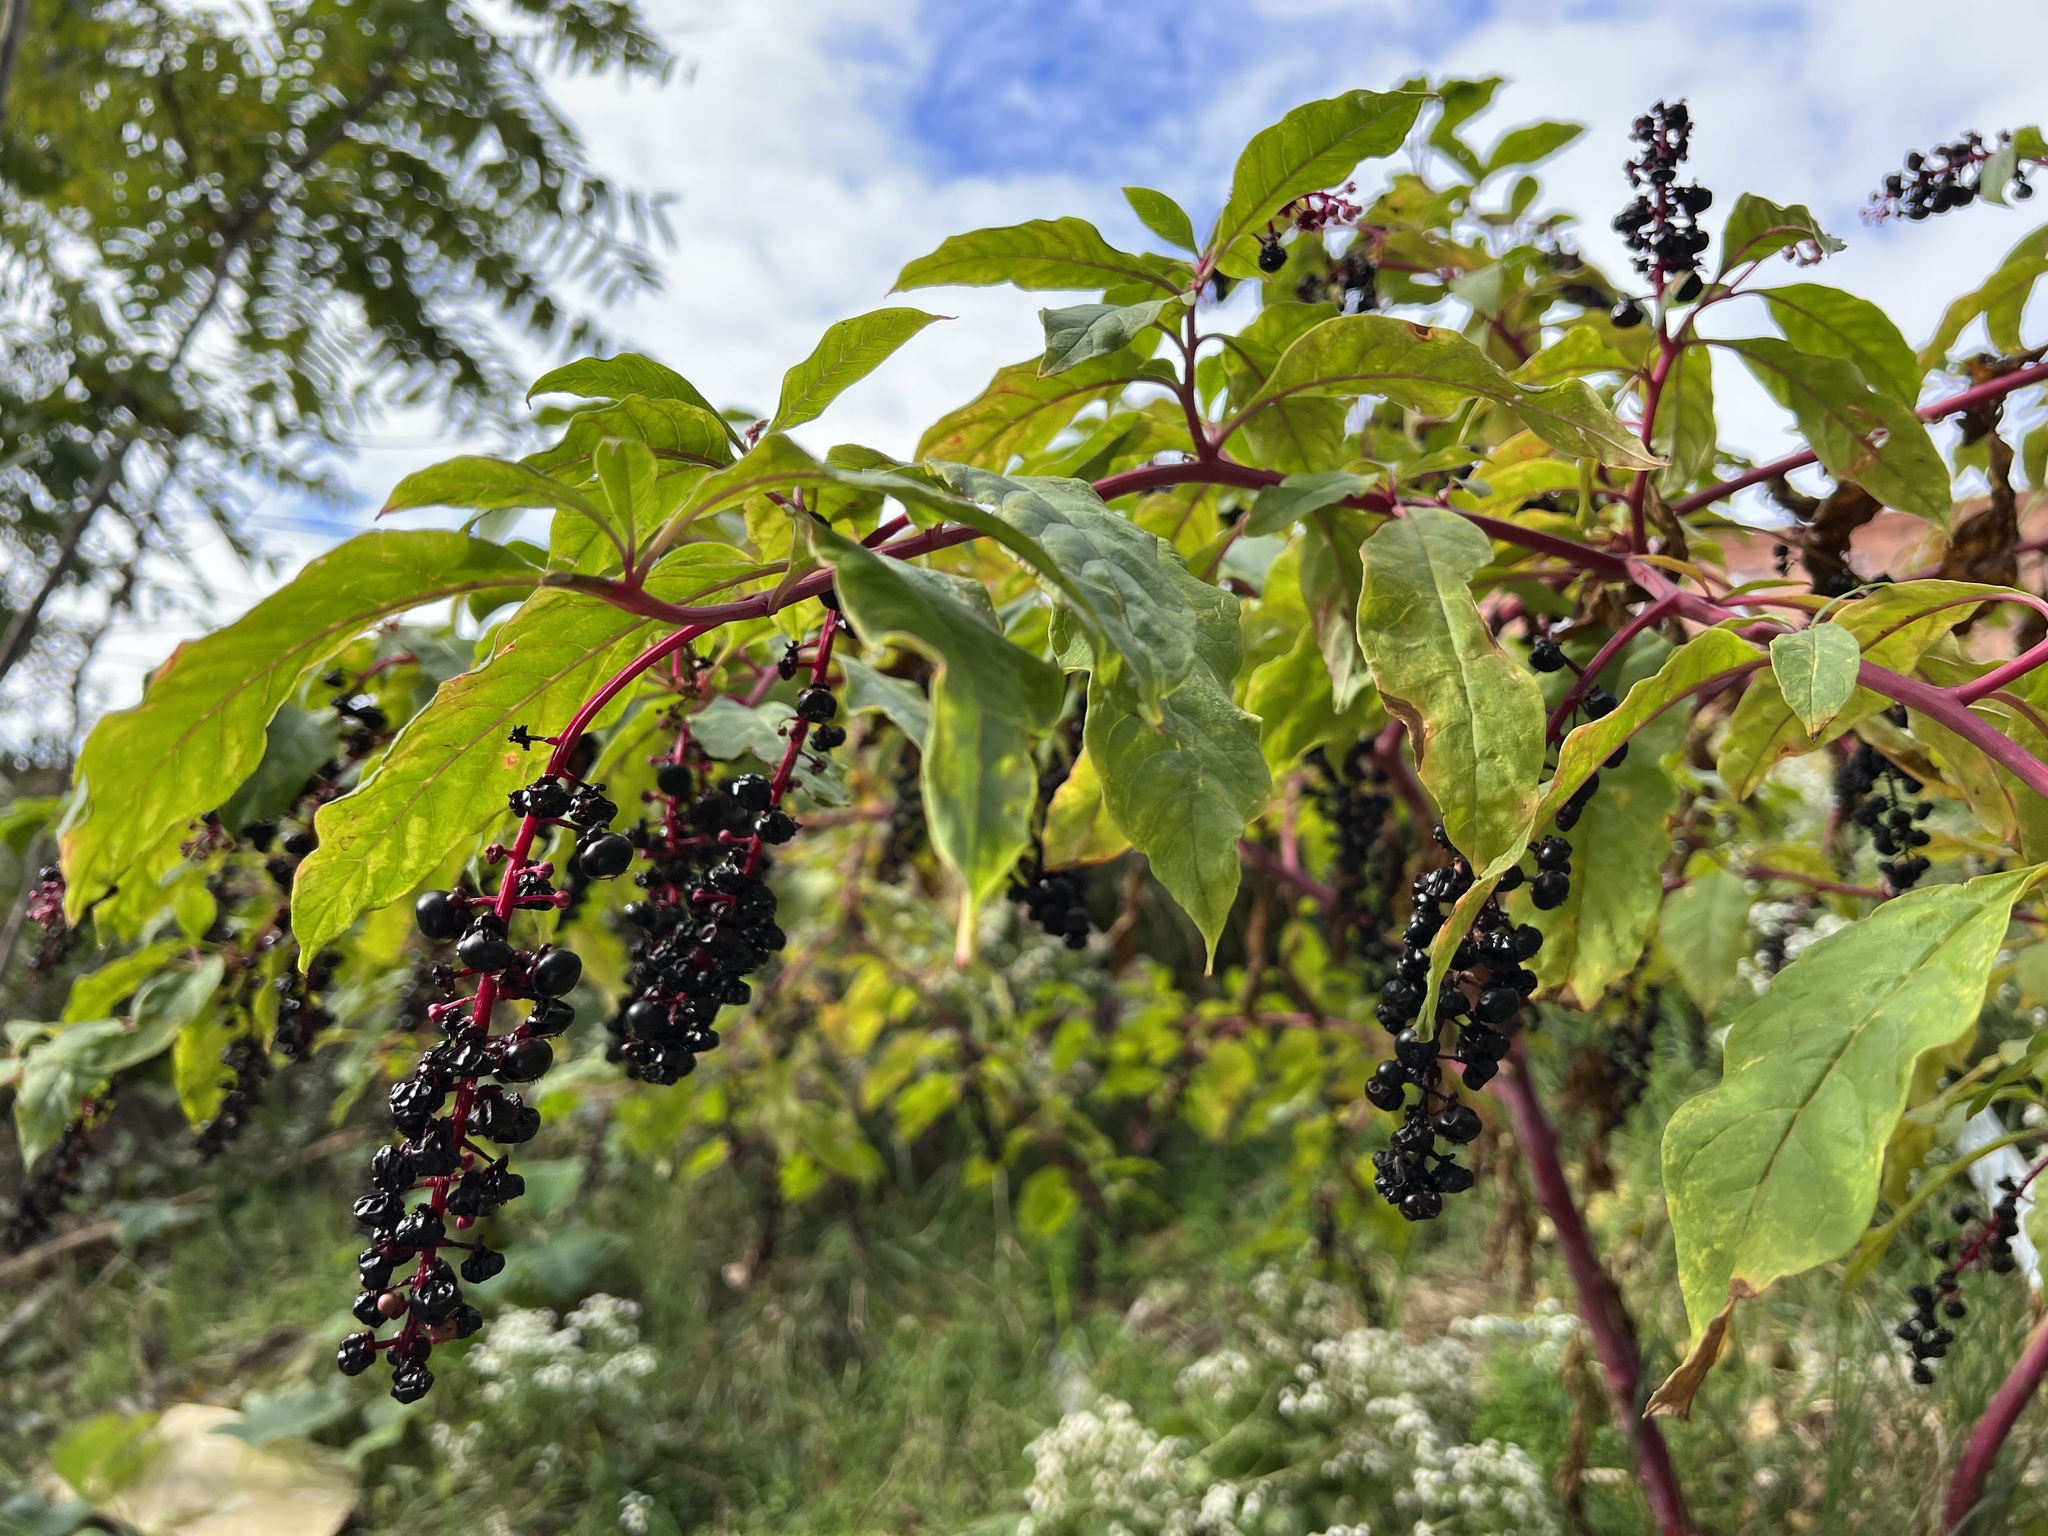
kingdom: Plantae
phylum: Tracheophyta
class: Magnoliopsida
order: Caryophyllales
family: Phytolaccaceae
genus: Phytolacca
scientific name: Phytolacca americana
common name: American pokeweed
